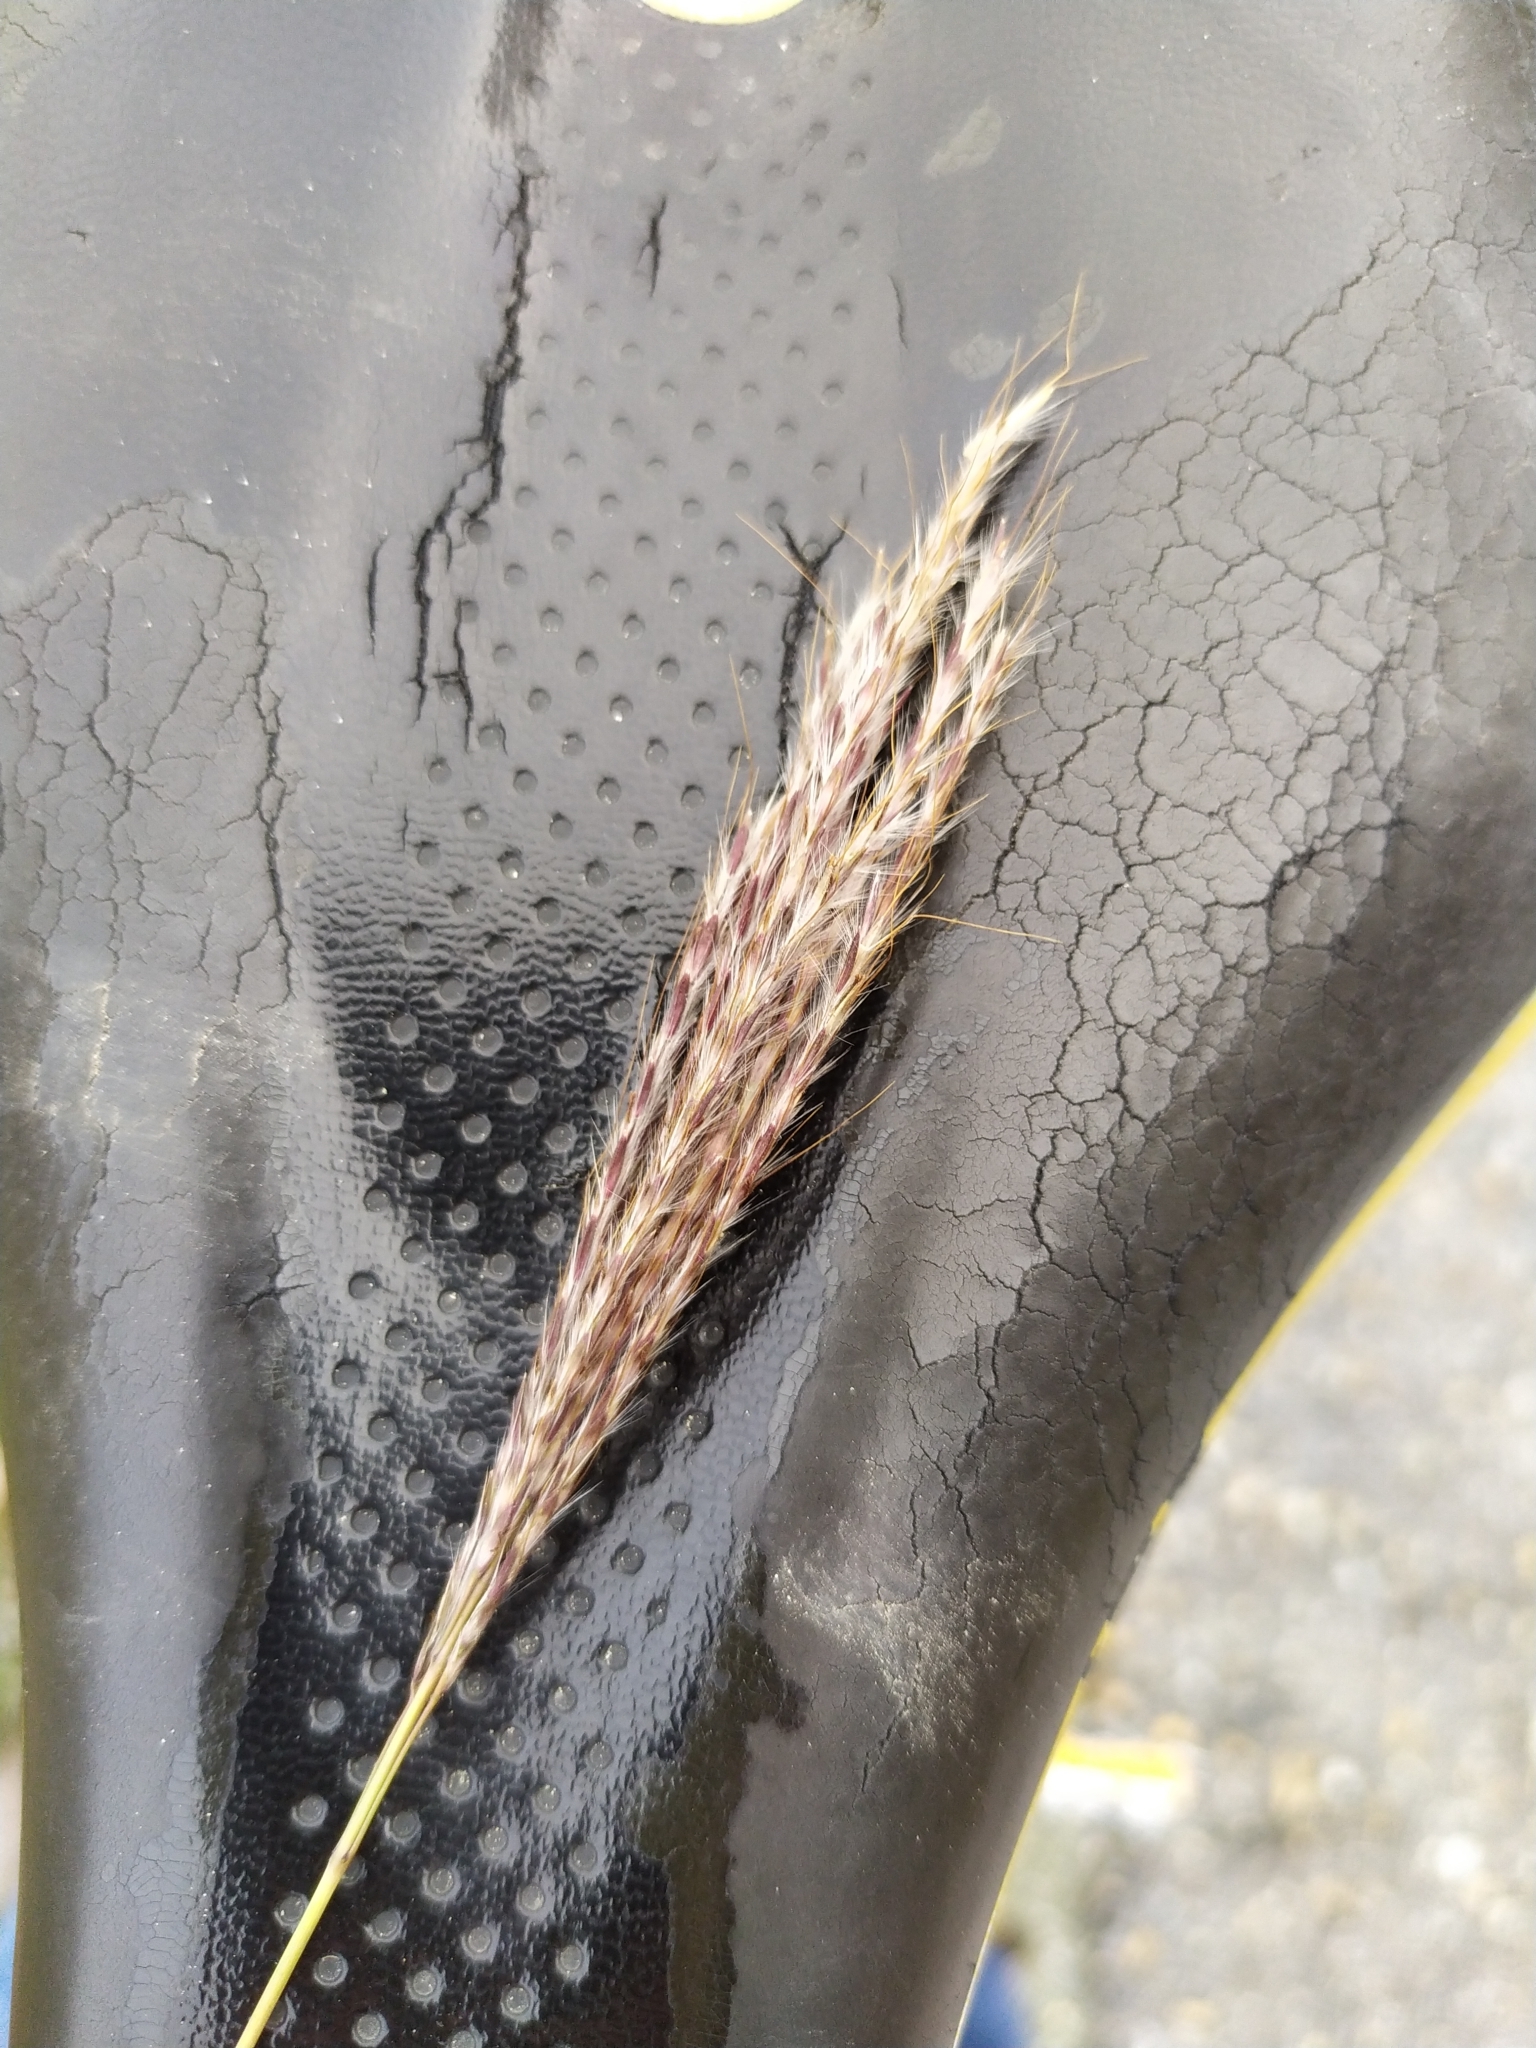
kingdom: Plantae
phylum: Tracheophyta
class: Liliopsida
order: Poales
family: Poaceae
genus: Bothriochloa
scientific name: Bothriochloa ischaemum
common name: Yellow bluestem
